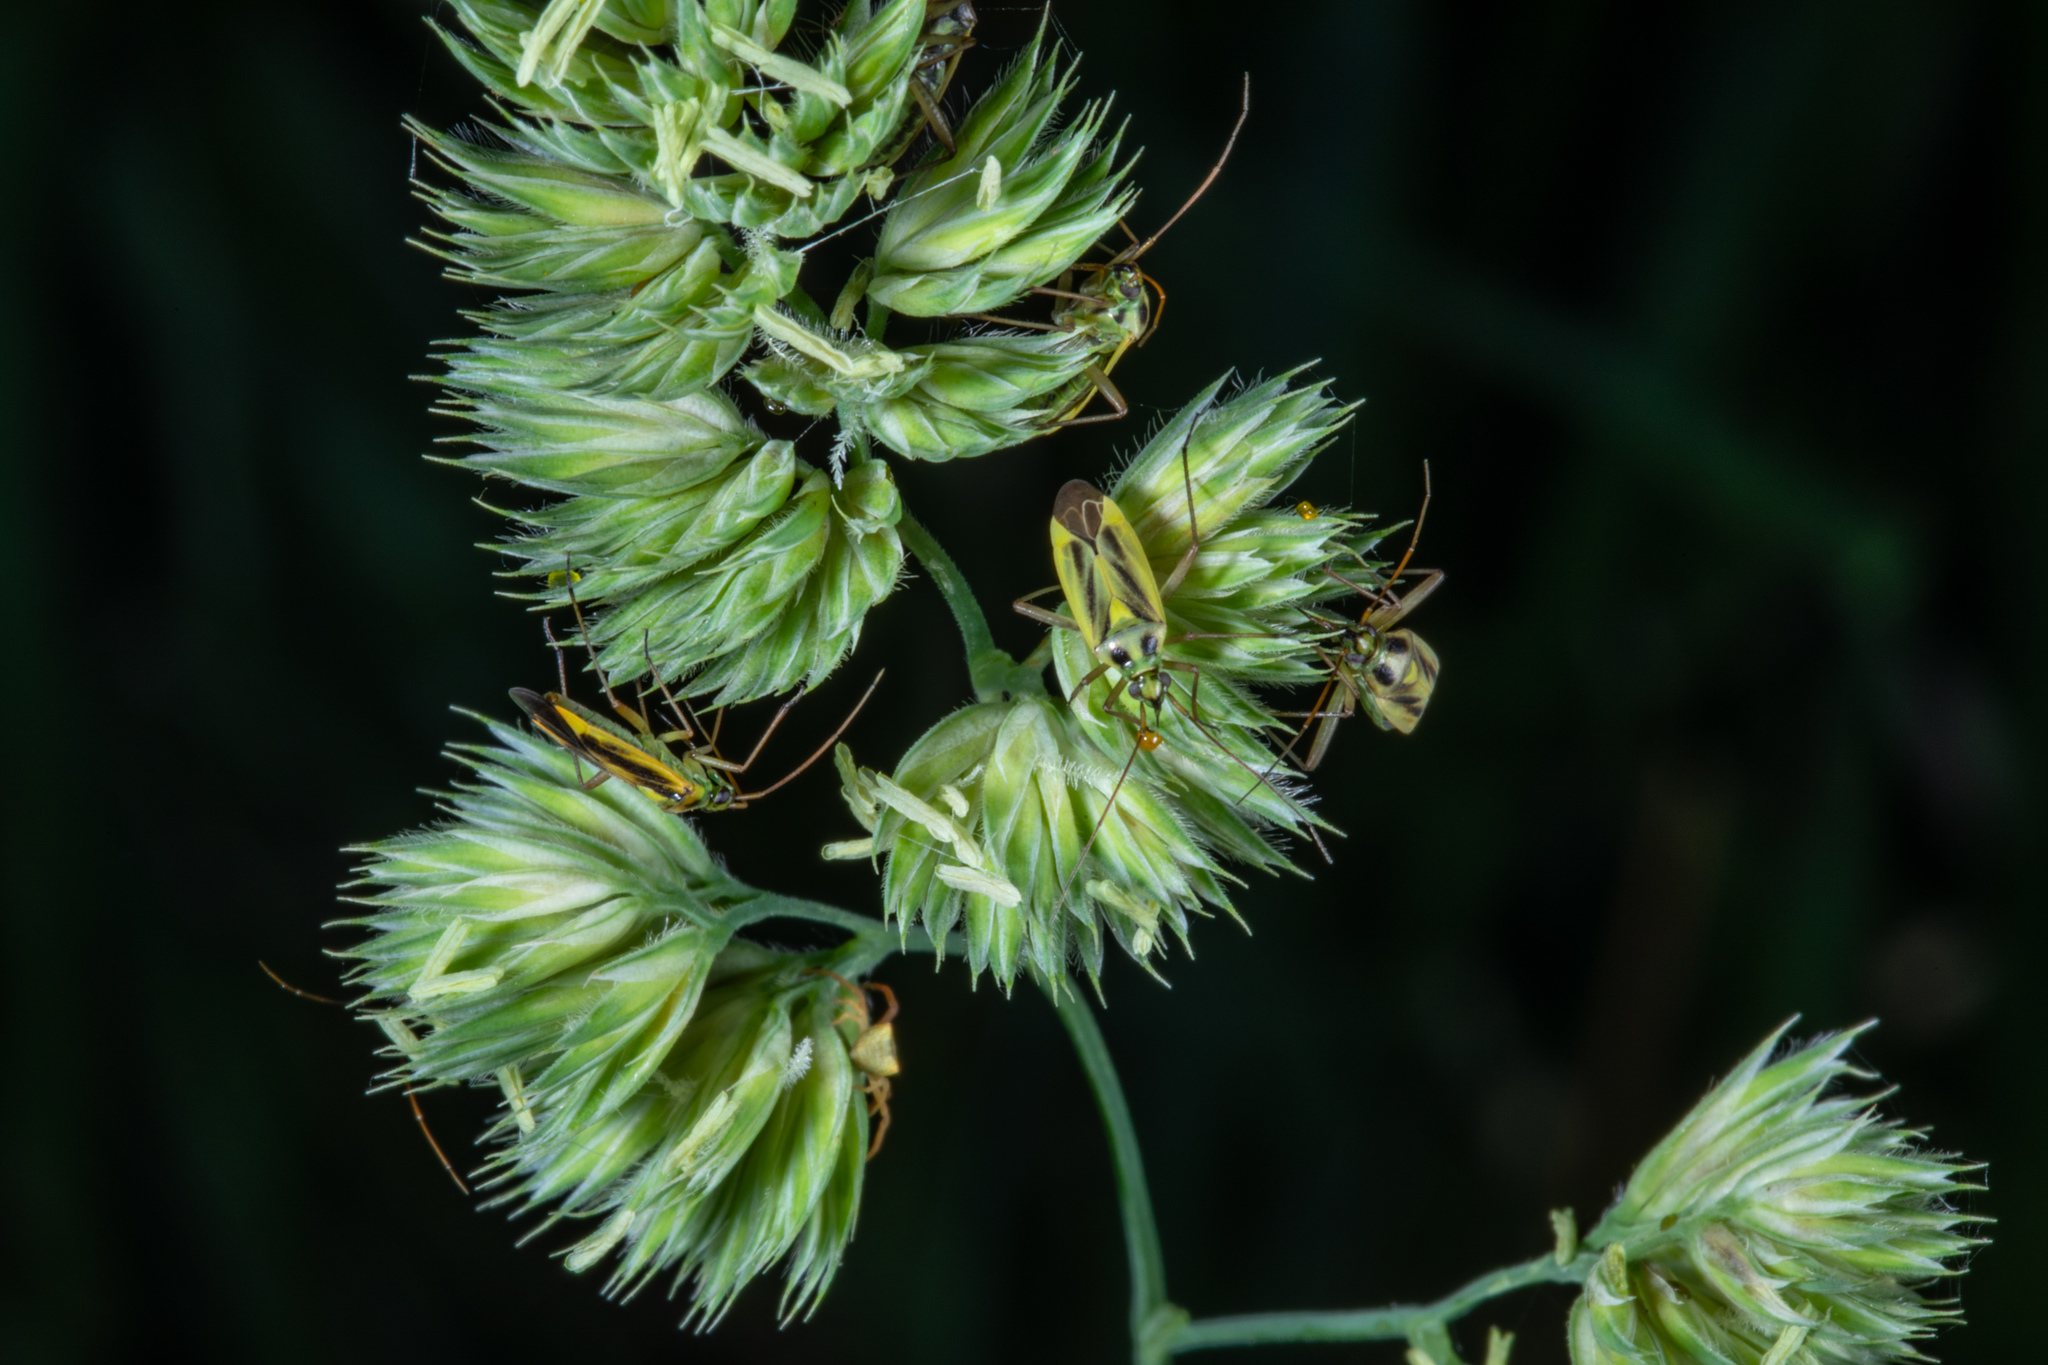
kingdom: Animalia
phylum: Arthropoda
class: Insecta
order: Hemiptera
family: Miridae
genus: Stenotus
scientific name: Stenotus binotatus
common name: Plant bug
